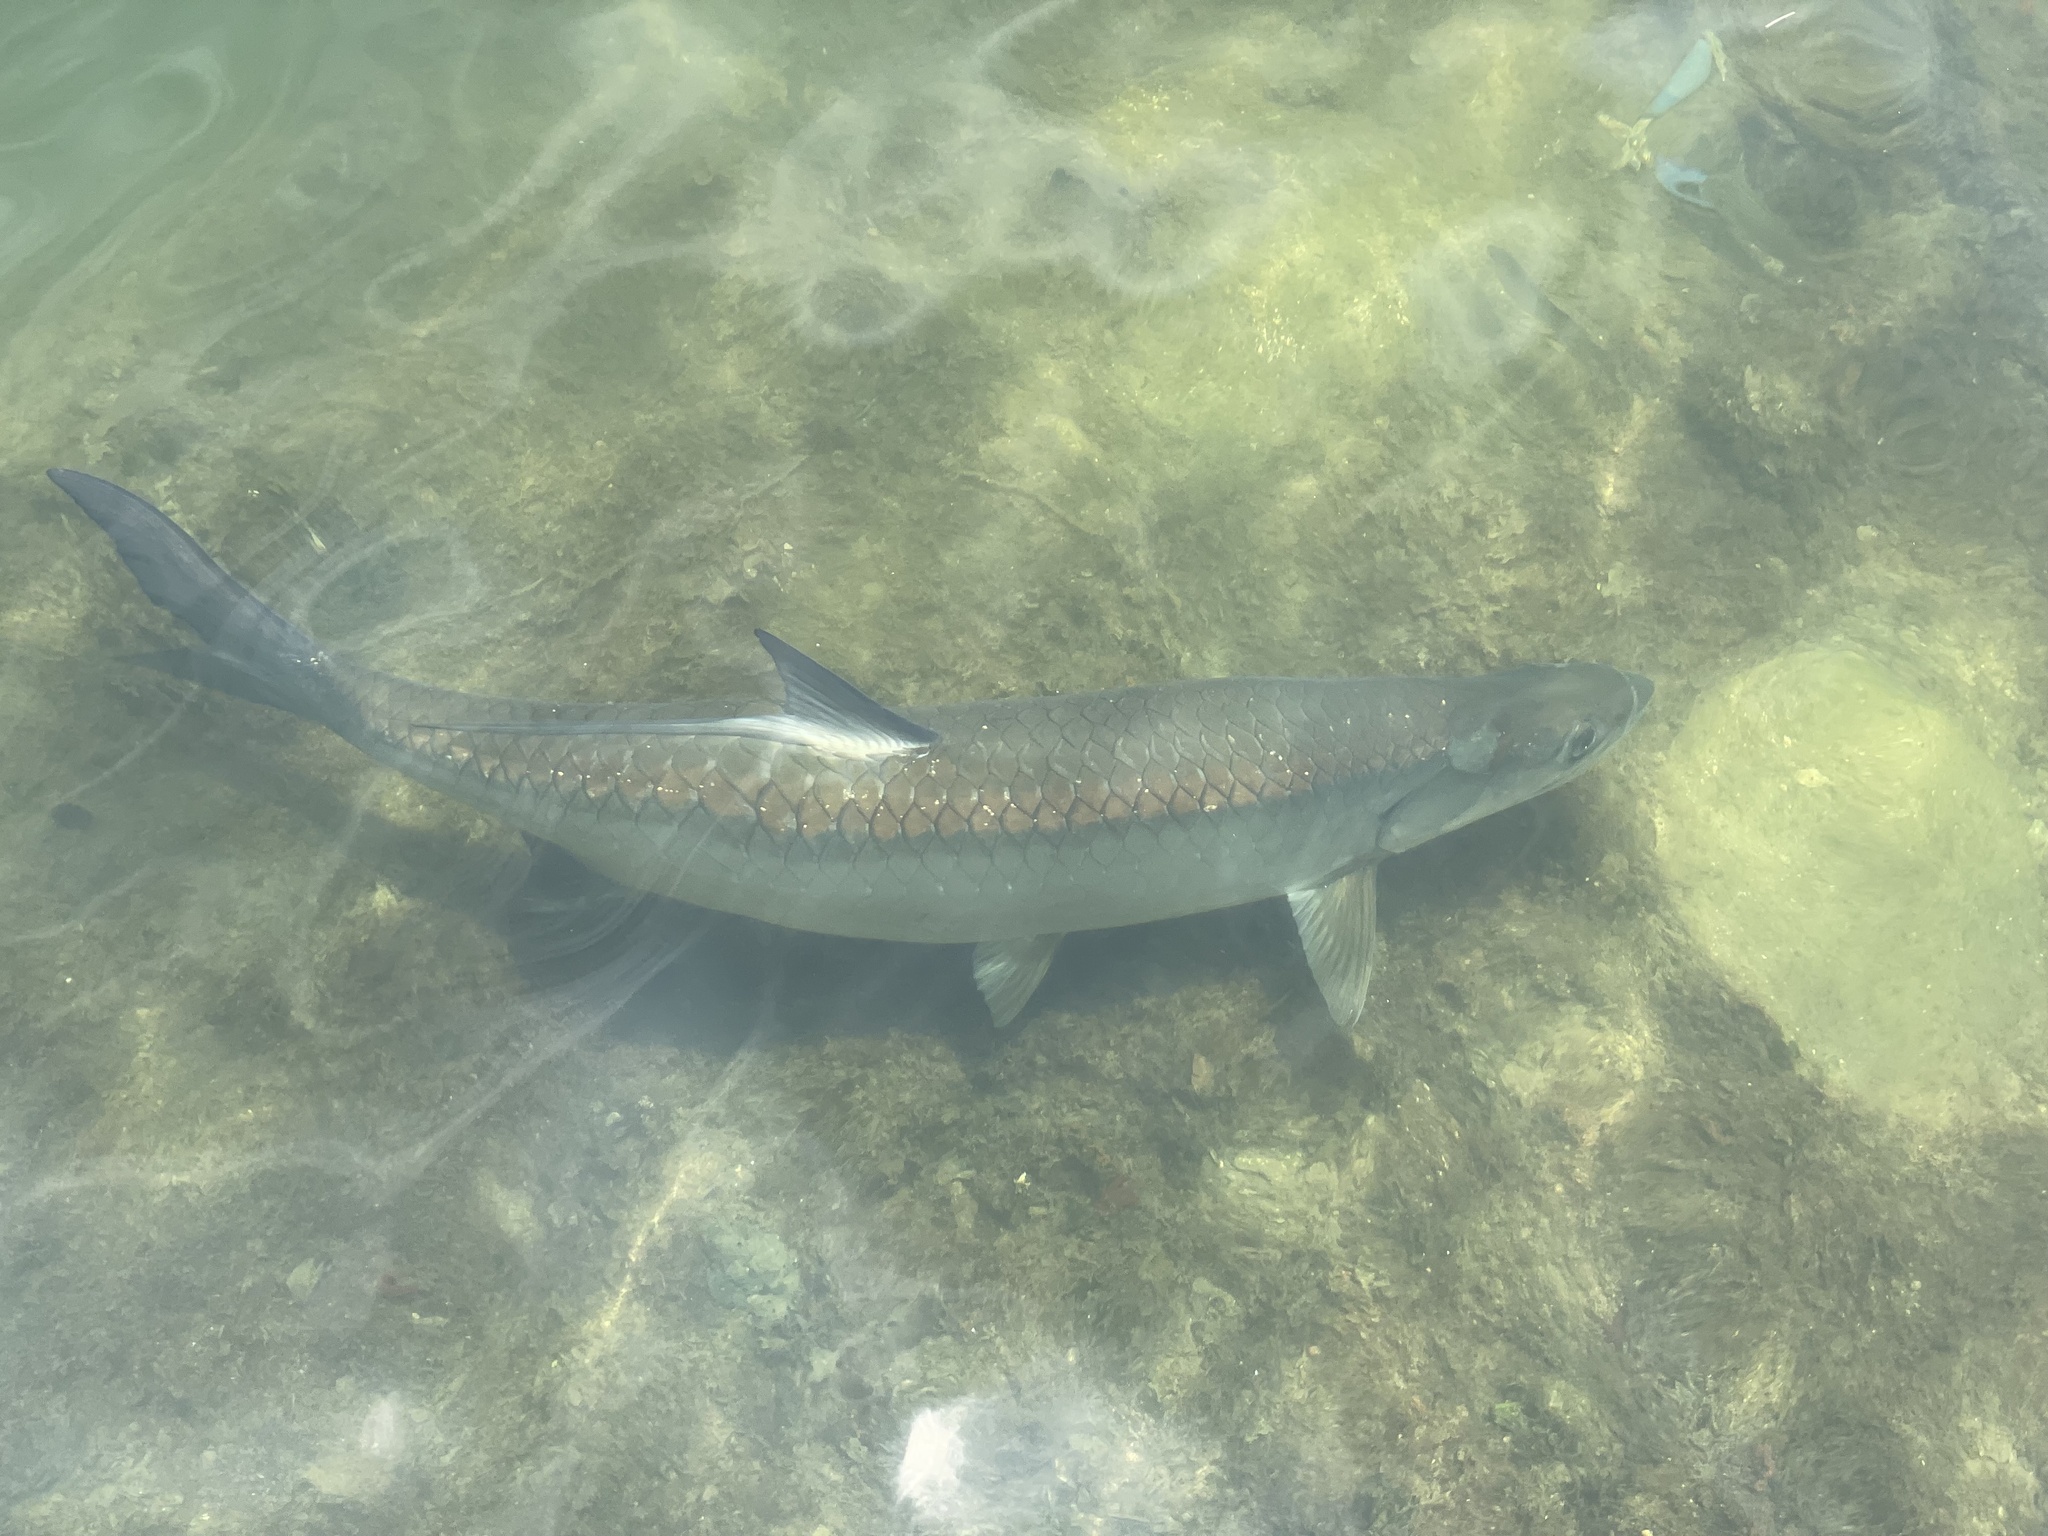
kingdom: Animalia
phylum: Chordata
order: Elopiformes
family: Megalopidae
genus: Megalops
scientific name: Megalops atlanticus
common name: Tarpon
